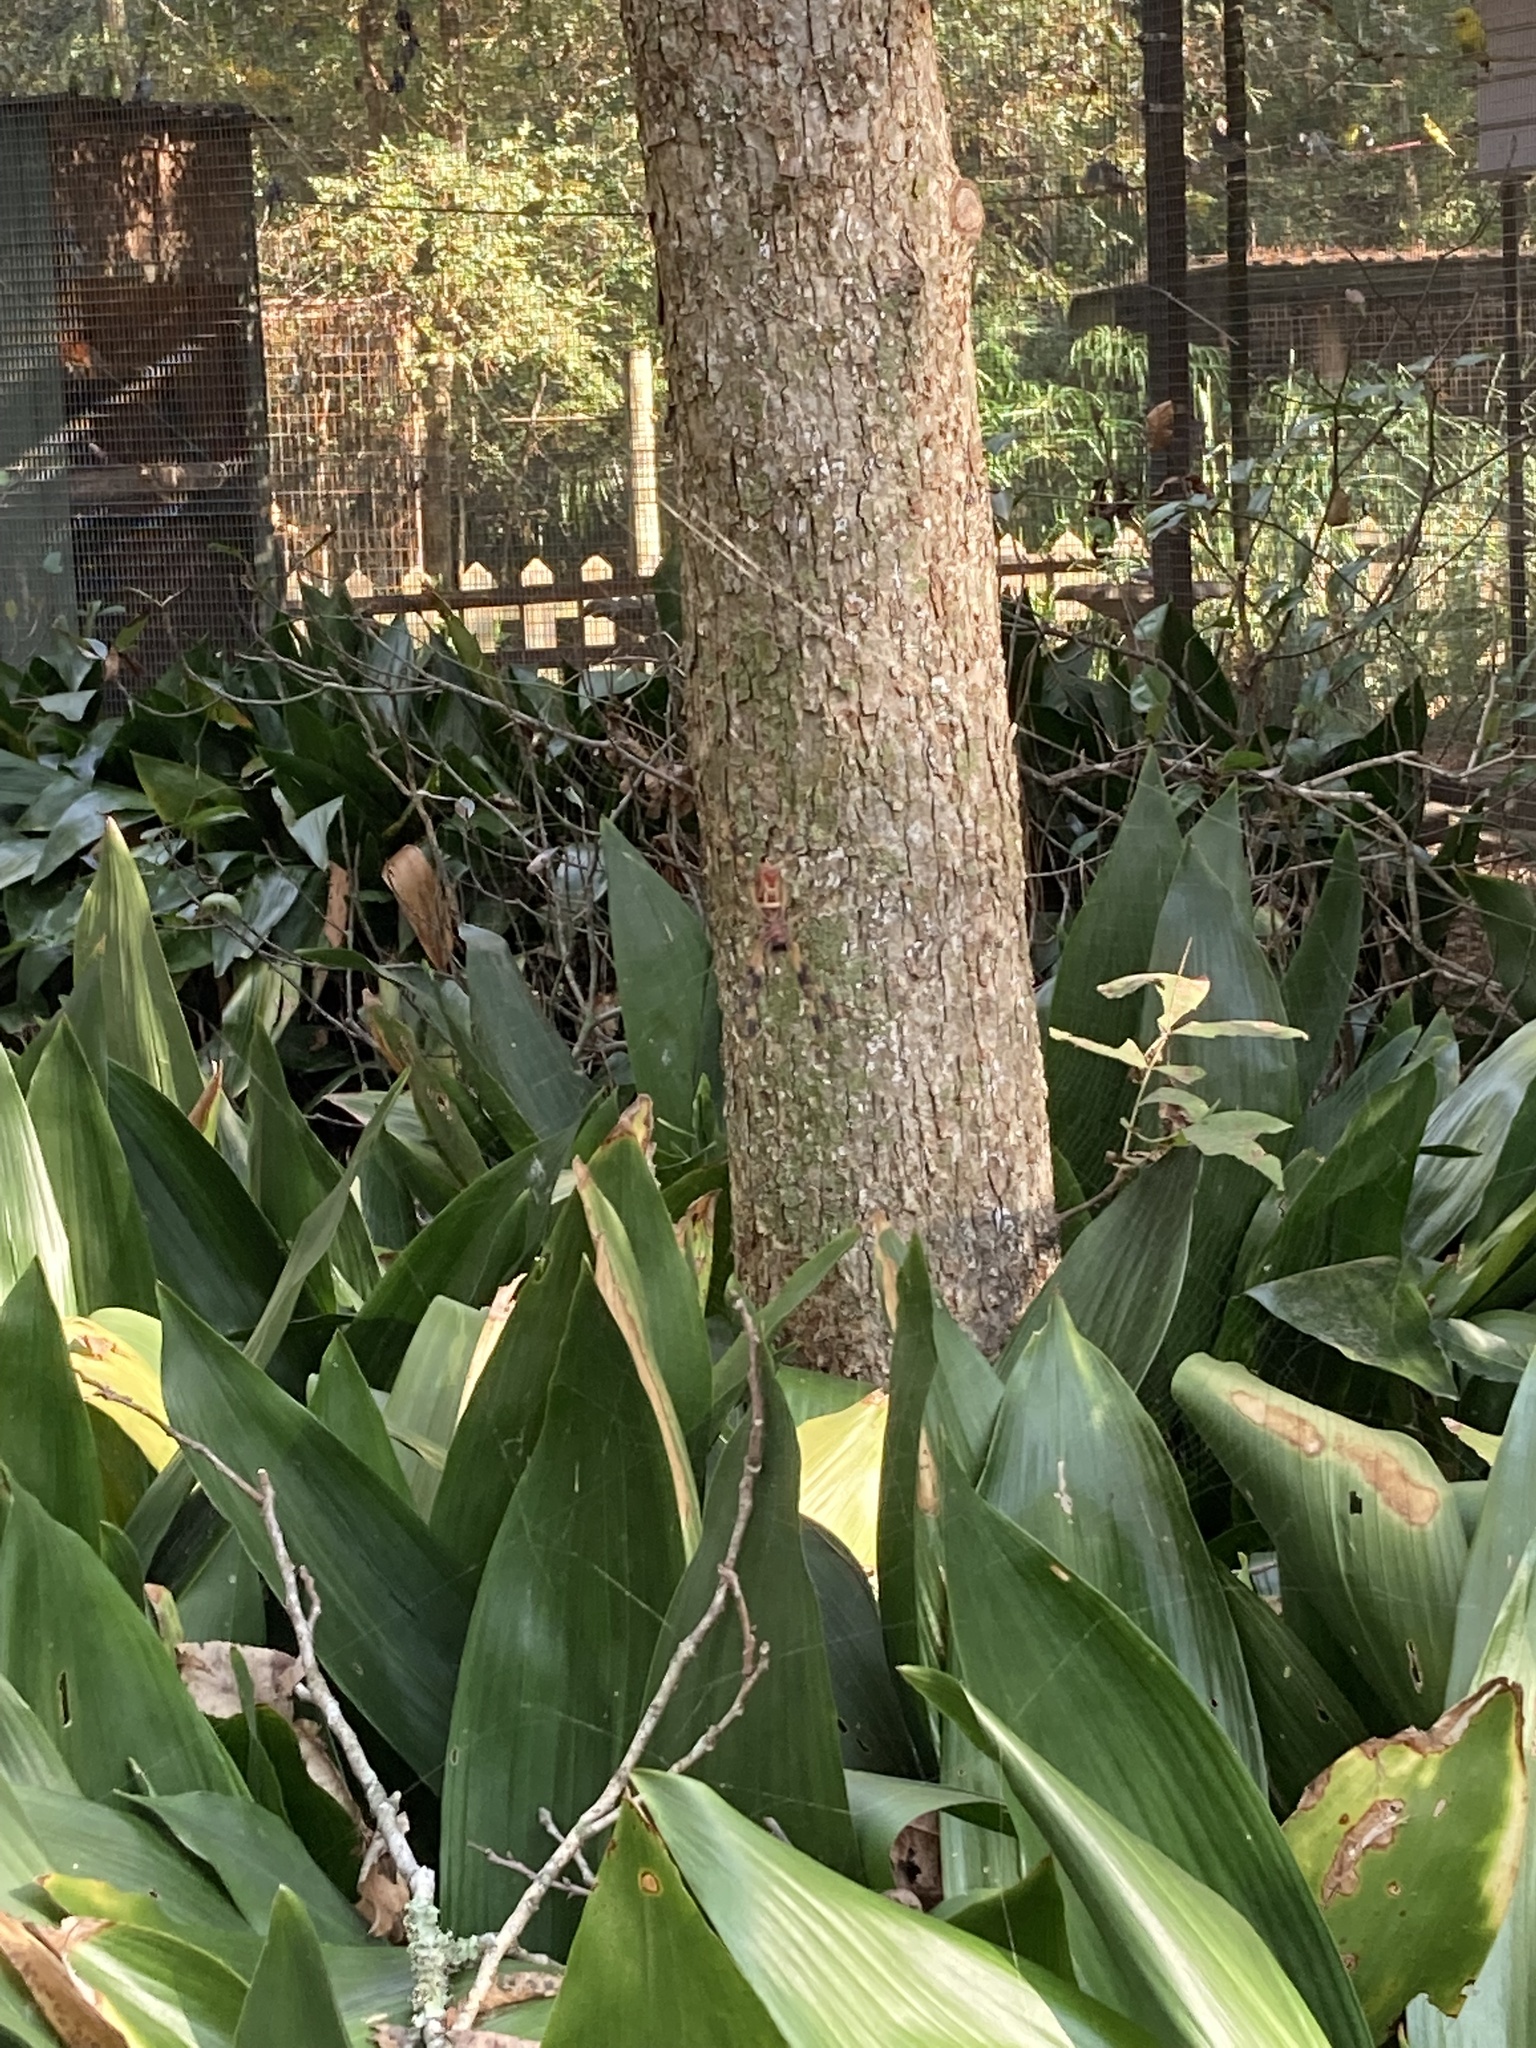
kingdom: Animalia
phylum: Arthropoda
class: Arachnida
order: Araneae
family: Araneidae
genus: Trichonephila
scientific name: Trichonephila clavipes
